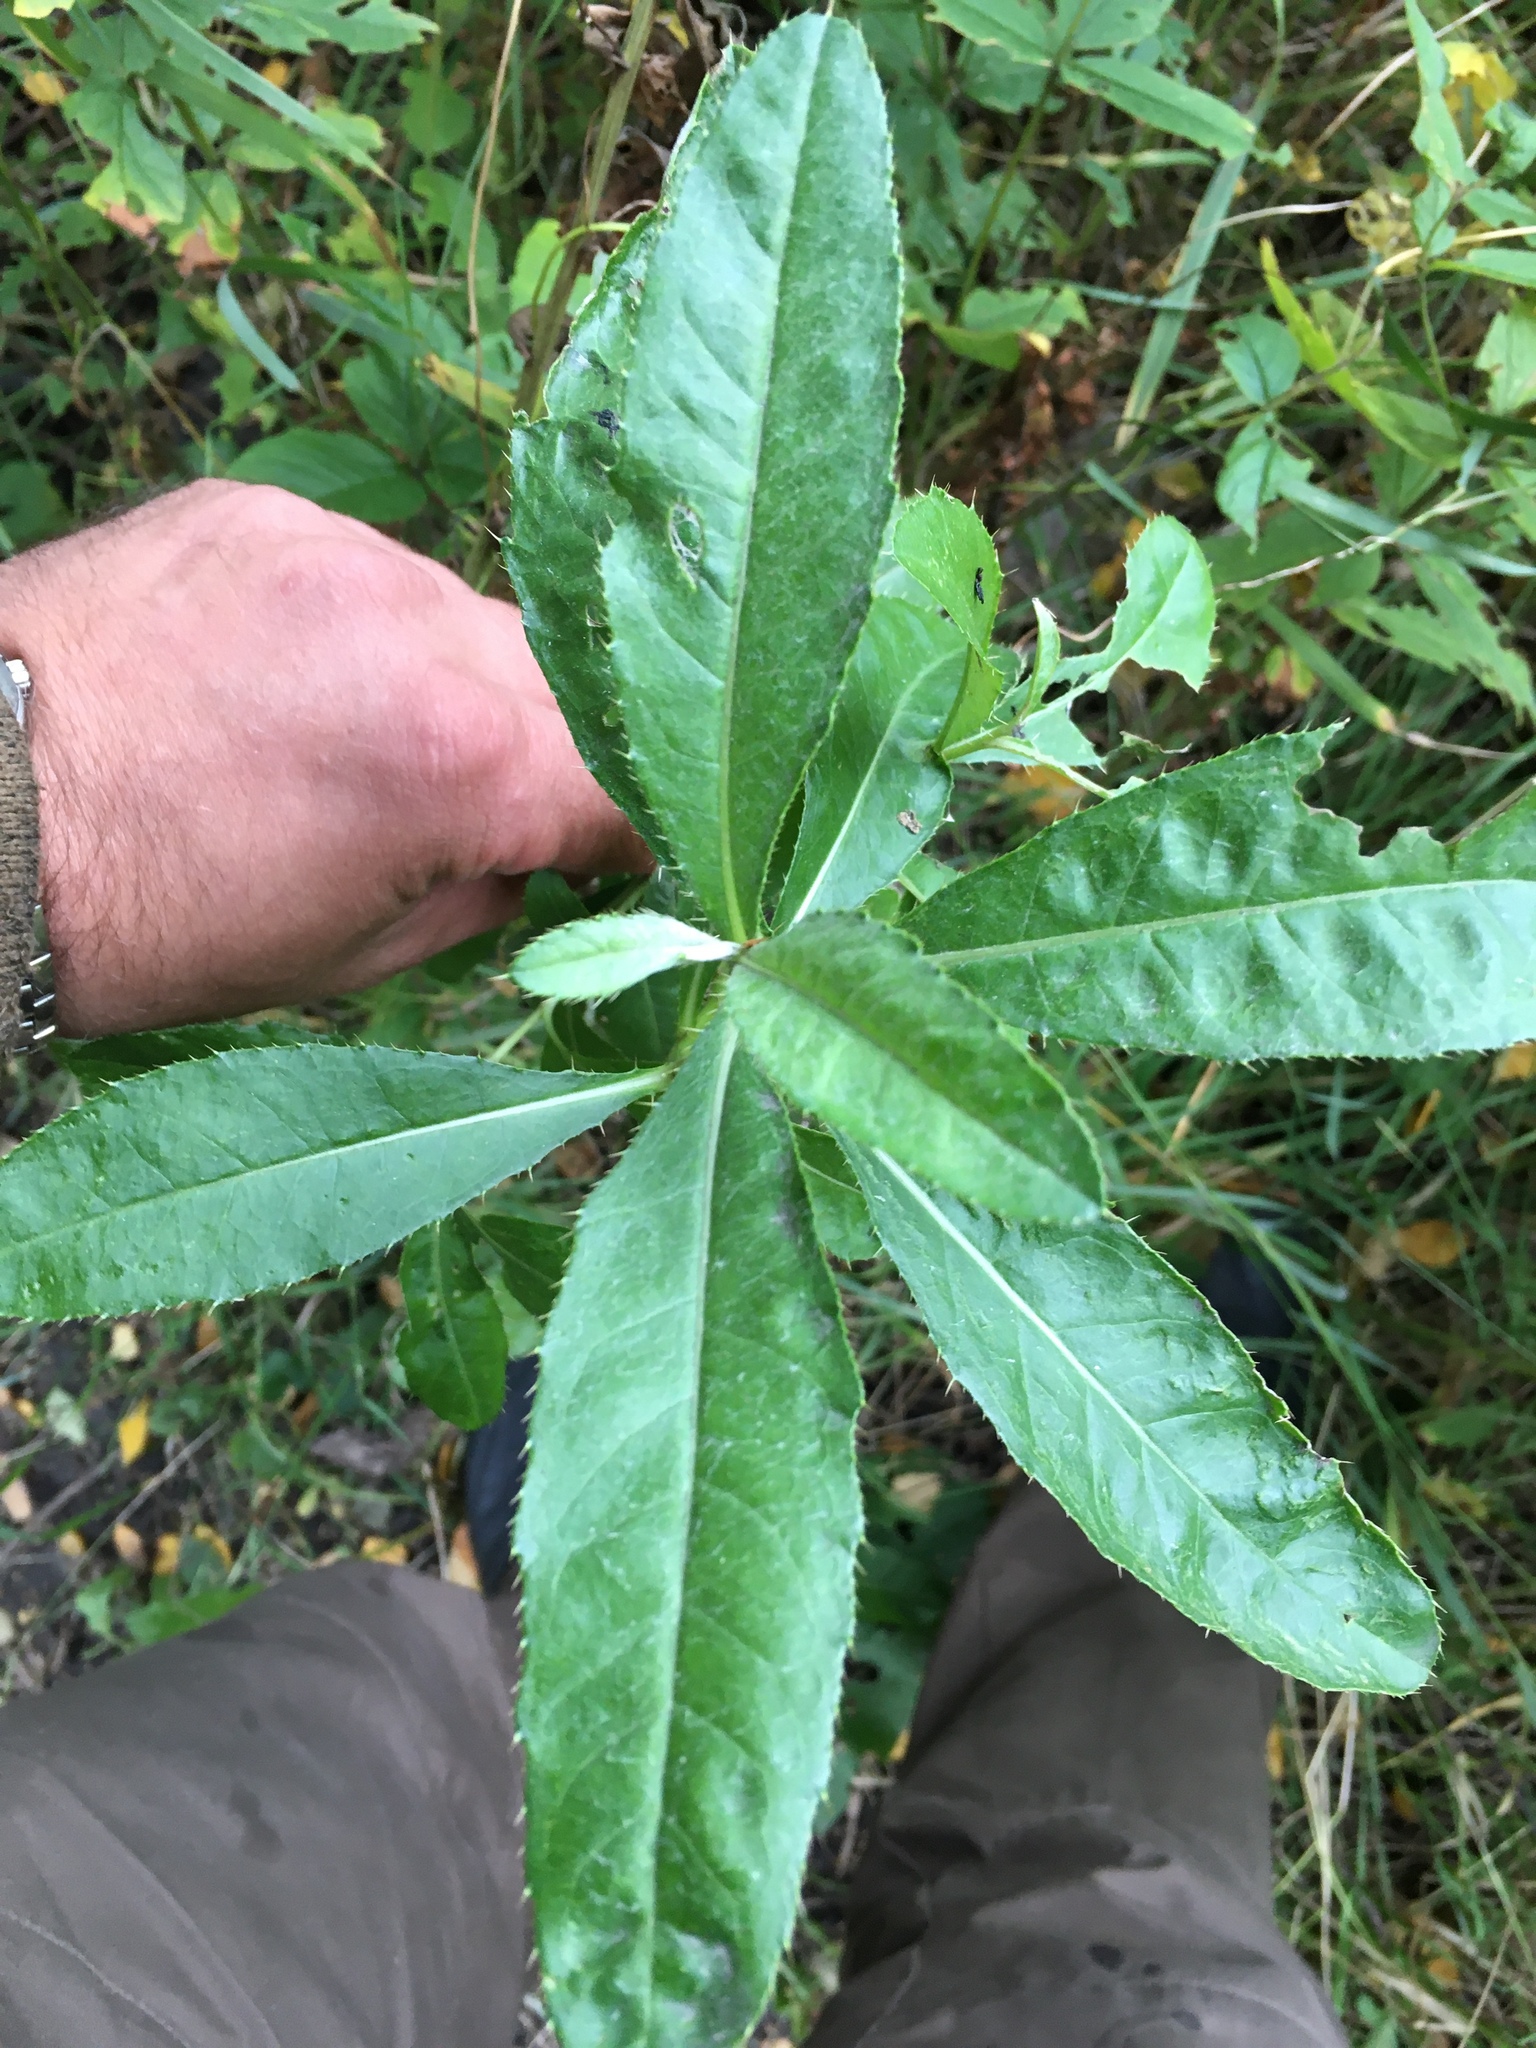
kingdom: Plantae
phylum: Tracheophyta
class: Magnoliopsida
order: Asterales
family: Asteraceae
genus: Cirsium
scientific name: Cirsium arvense
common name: Creeping thistle
